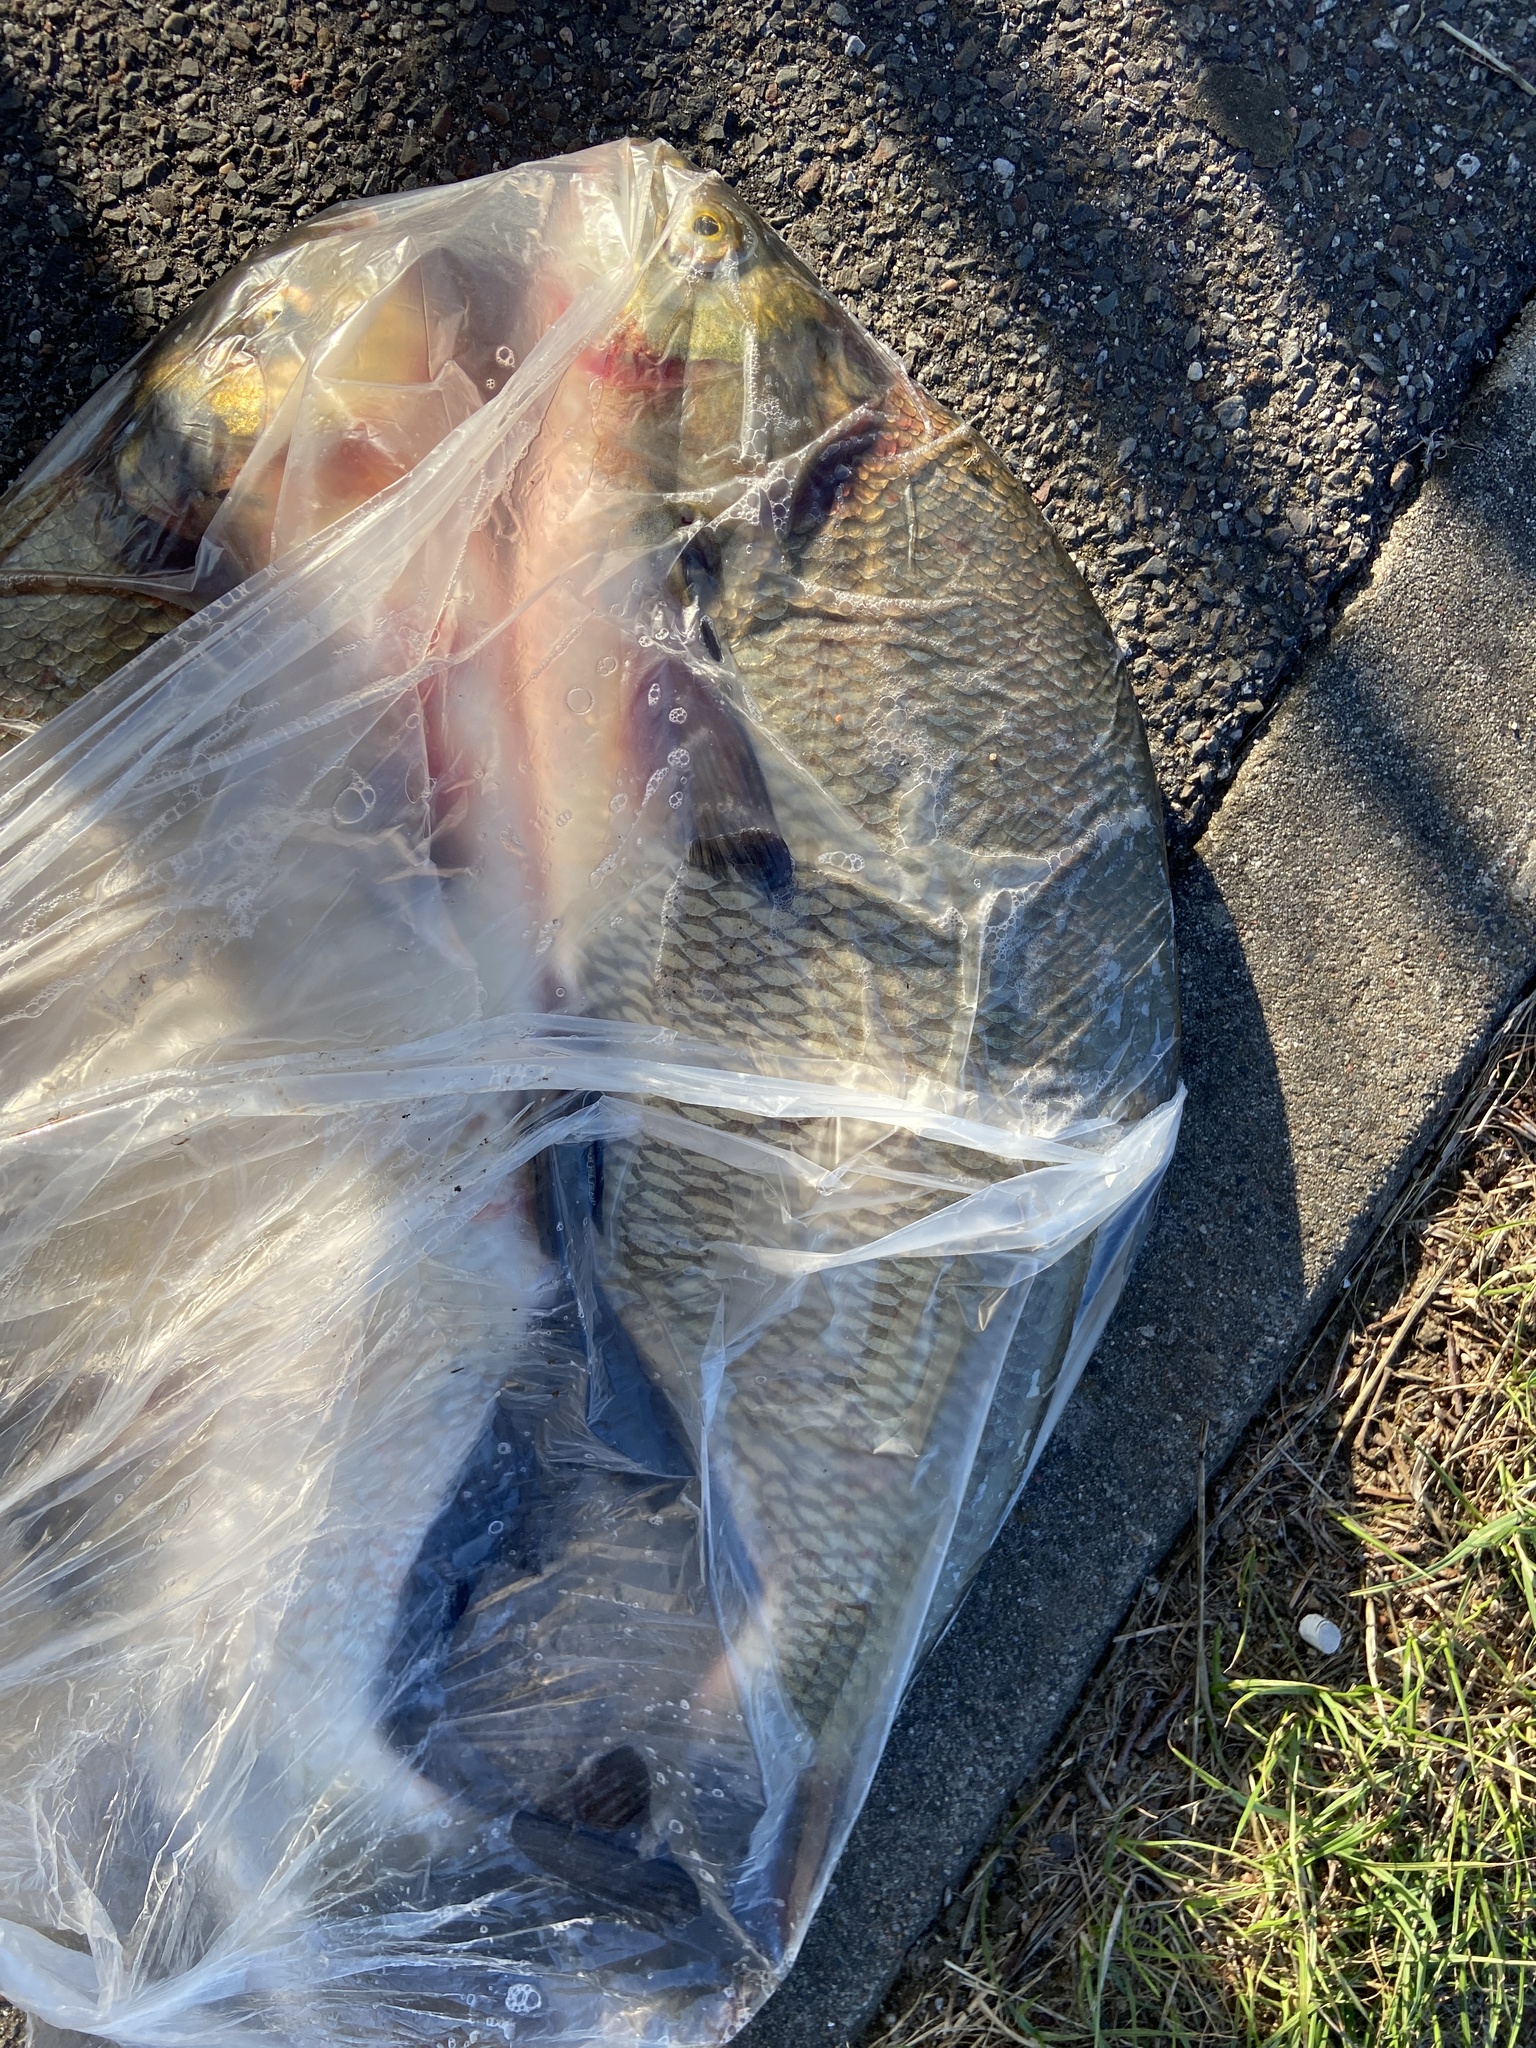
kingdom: Animalia
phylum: Chordata
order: Cypriniformes
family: Cyprinidae
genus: Abramis
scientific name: Abramis brama
